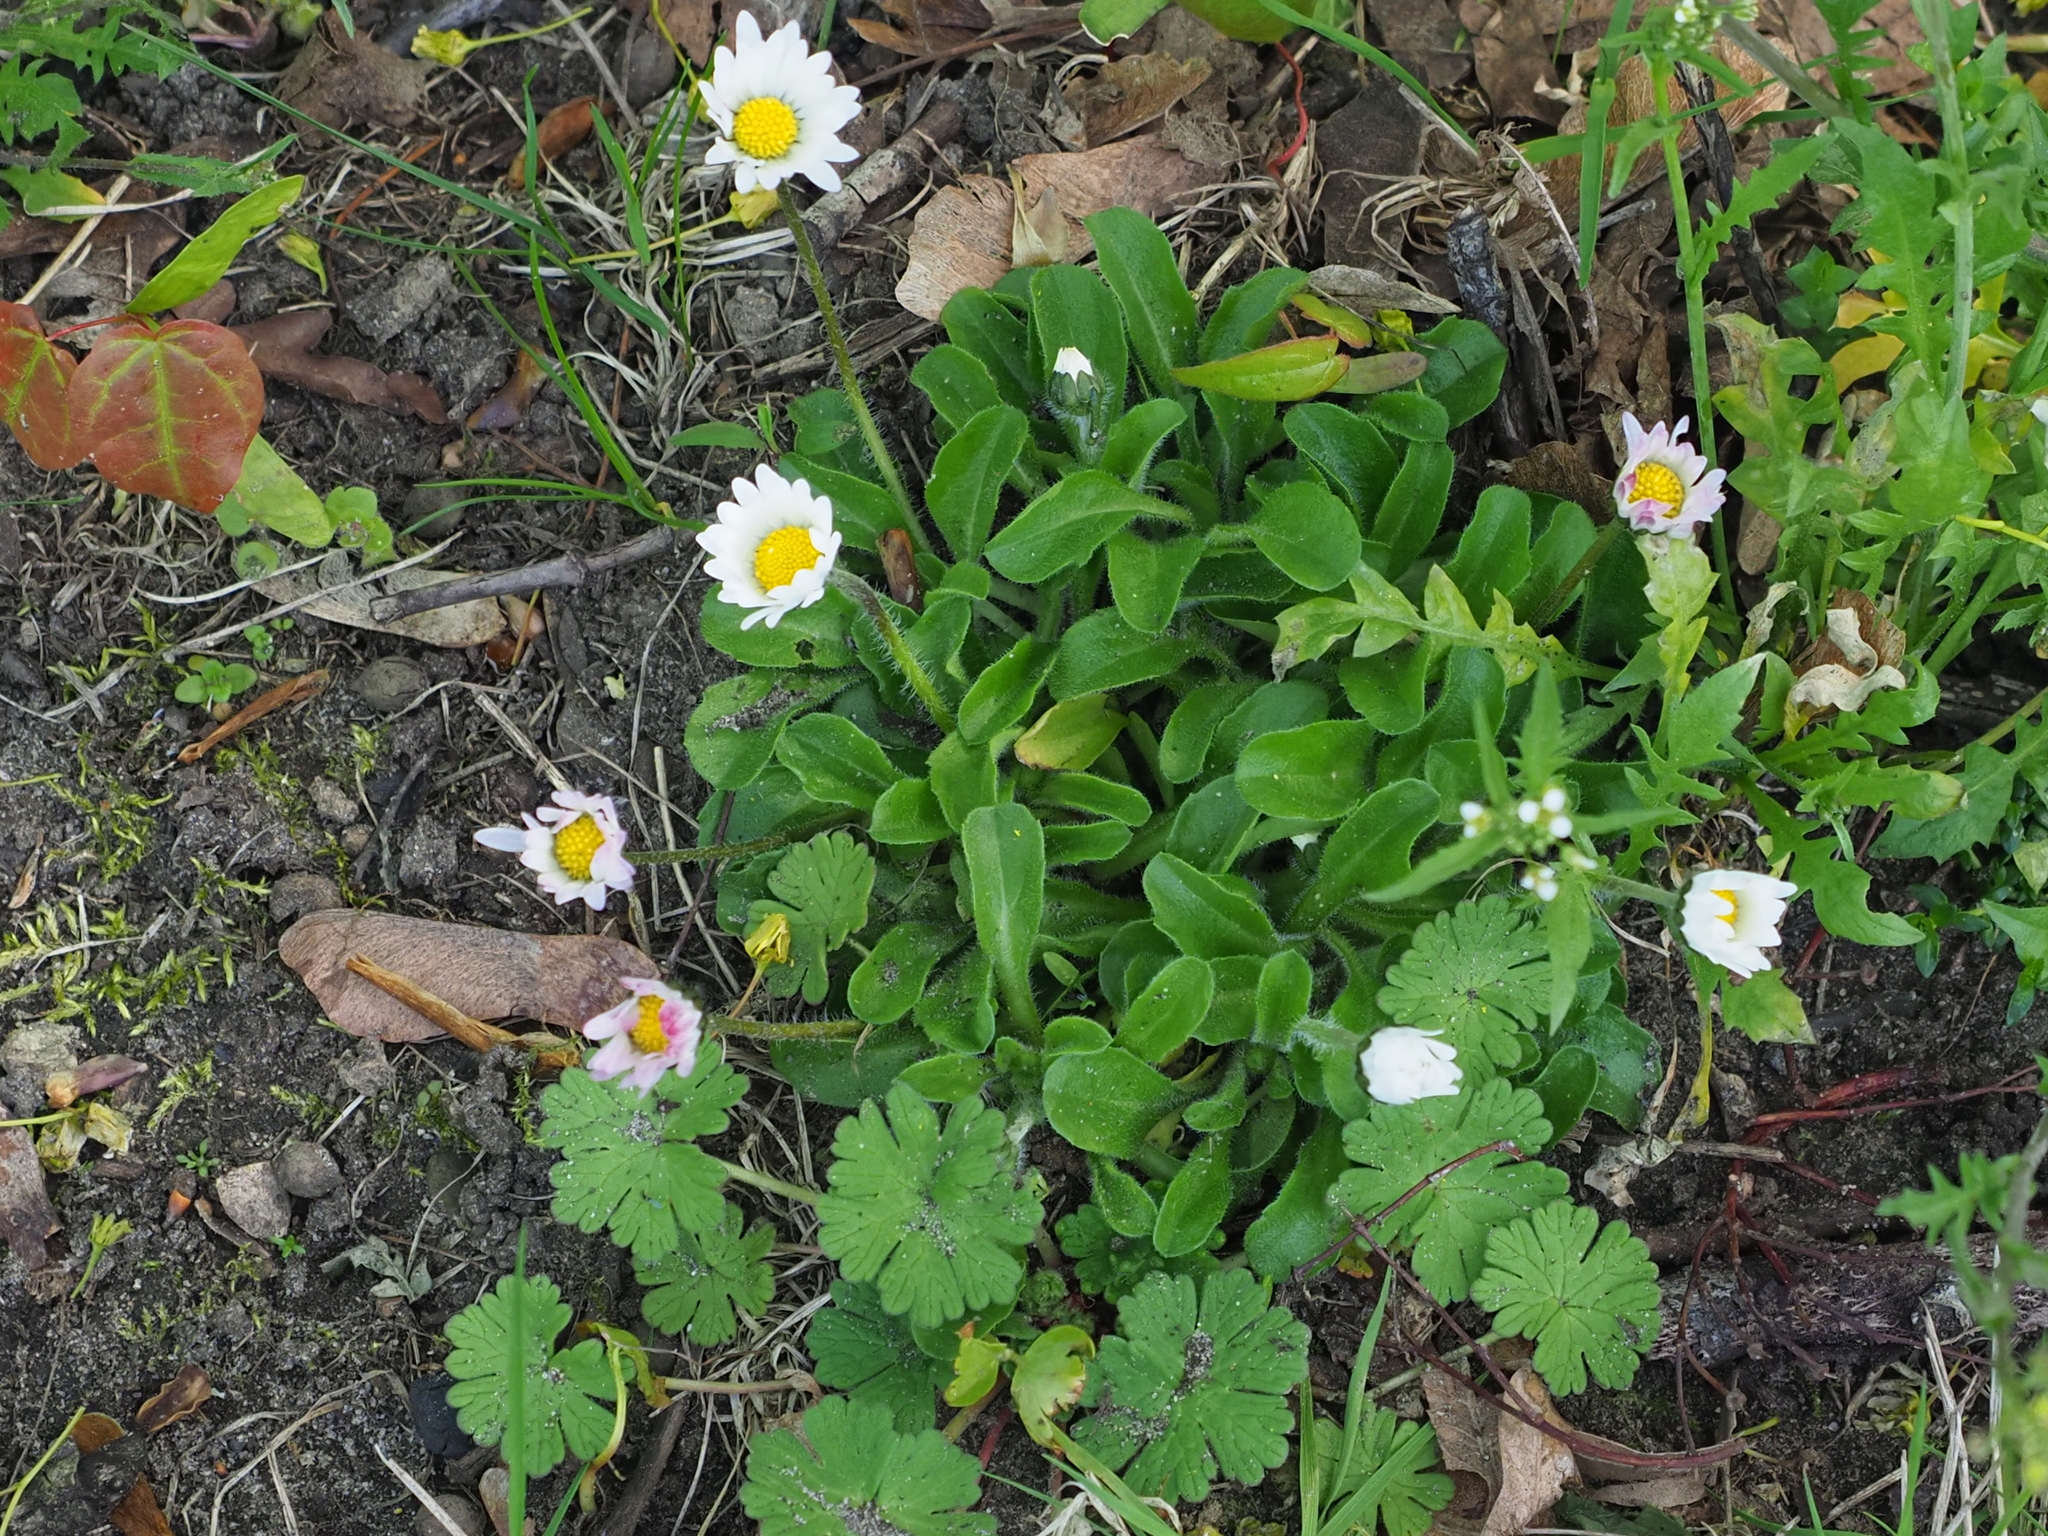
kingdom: Plantae
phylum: Tracheophyta
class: Magnoliopsida
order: Asterales
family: Asteraceae
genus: Bellis
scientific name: Bellis perennis
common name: Lawndaisy
